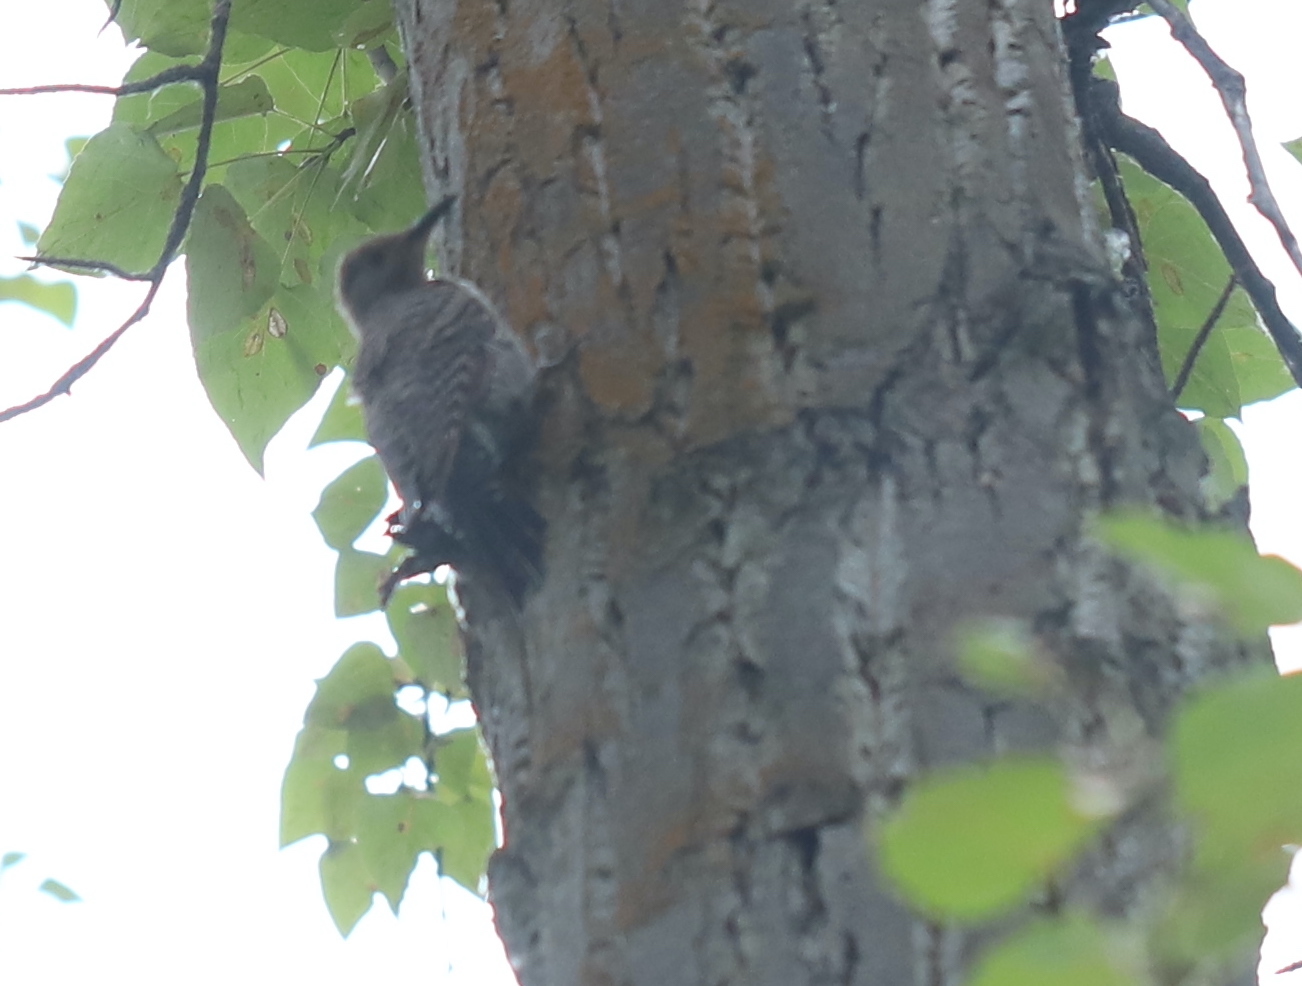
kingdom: Animalia
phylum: Chordata
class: Aves
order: Piciformes
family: Picidae
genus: Colaptes
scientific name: Colaptes auratus
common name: Northern flicker
